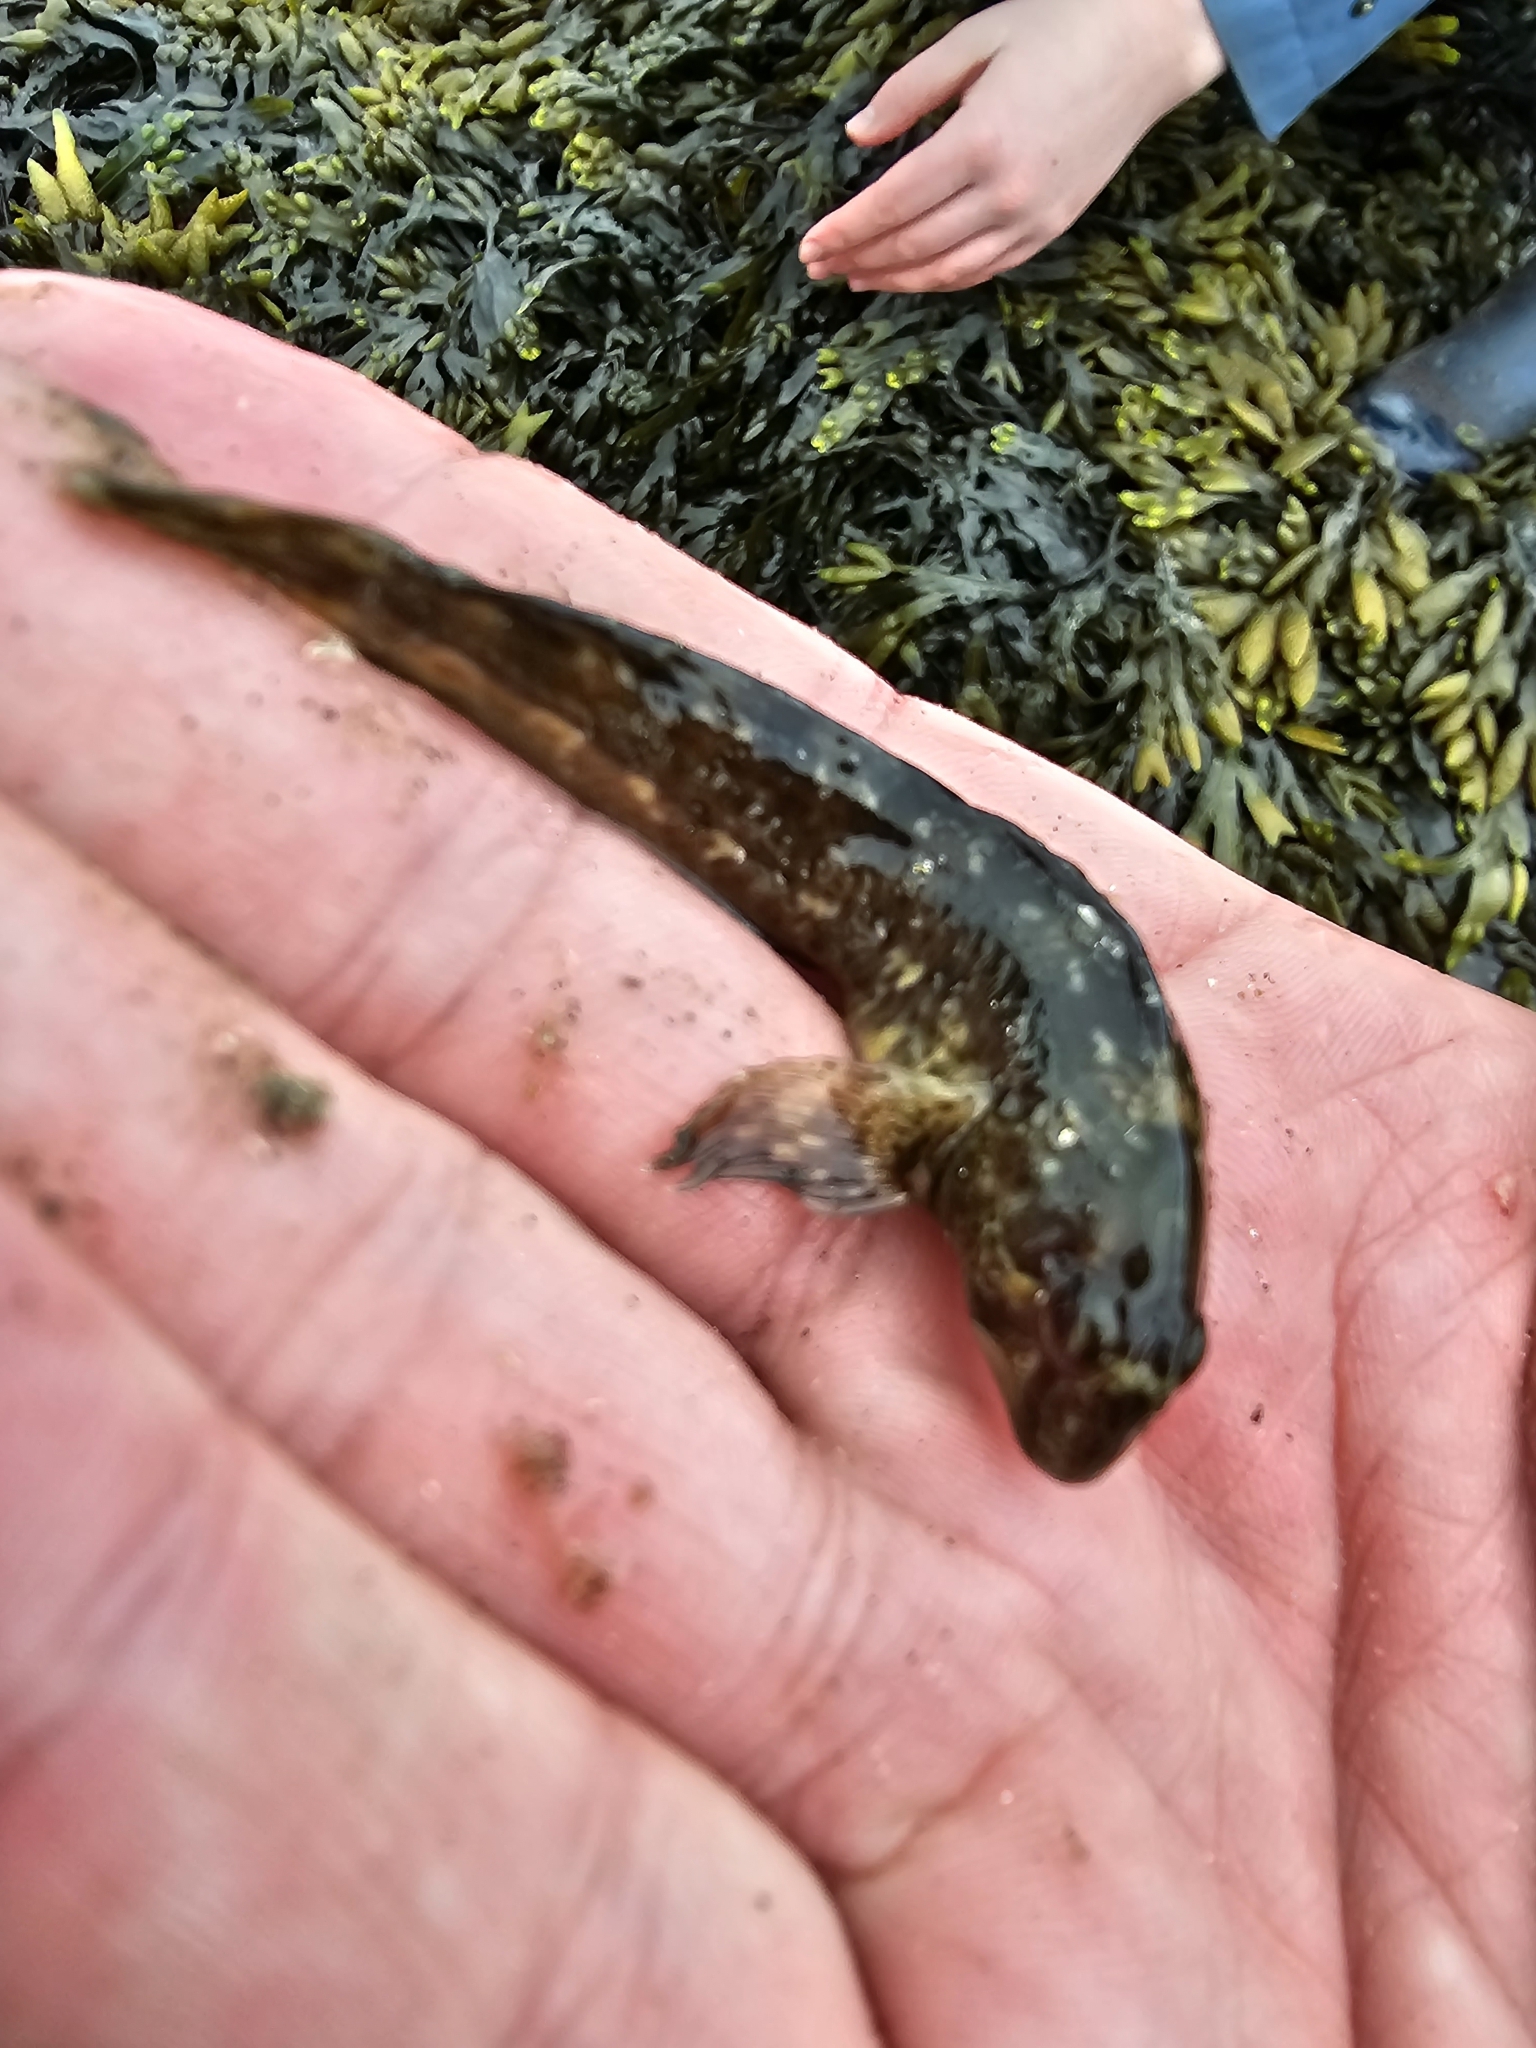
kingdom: Animalia
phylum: Chordata
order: Perciformes
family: Blenniidae
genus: Lipophrys
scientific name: Lipophrys pholis
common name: Shanny
